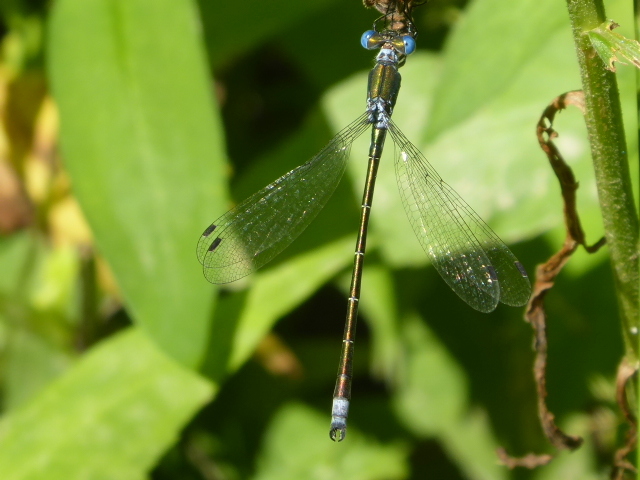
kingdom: Animalia
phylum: Arthropoda
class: Insecta
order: Odonata
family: Lestidae
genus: Lestes
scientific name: Lestes dryas
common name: Scarce emerald damselfly
